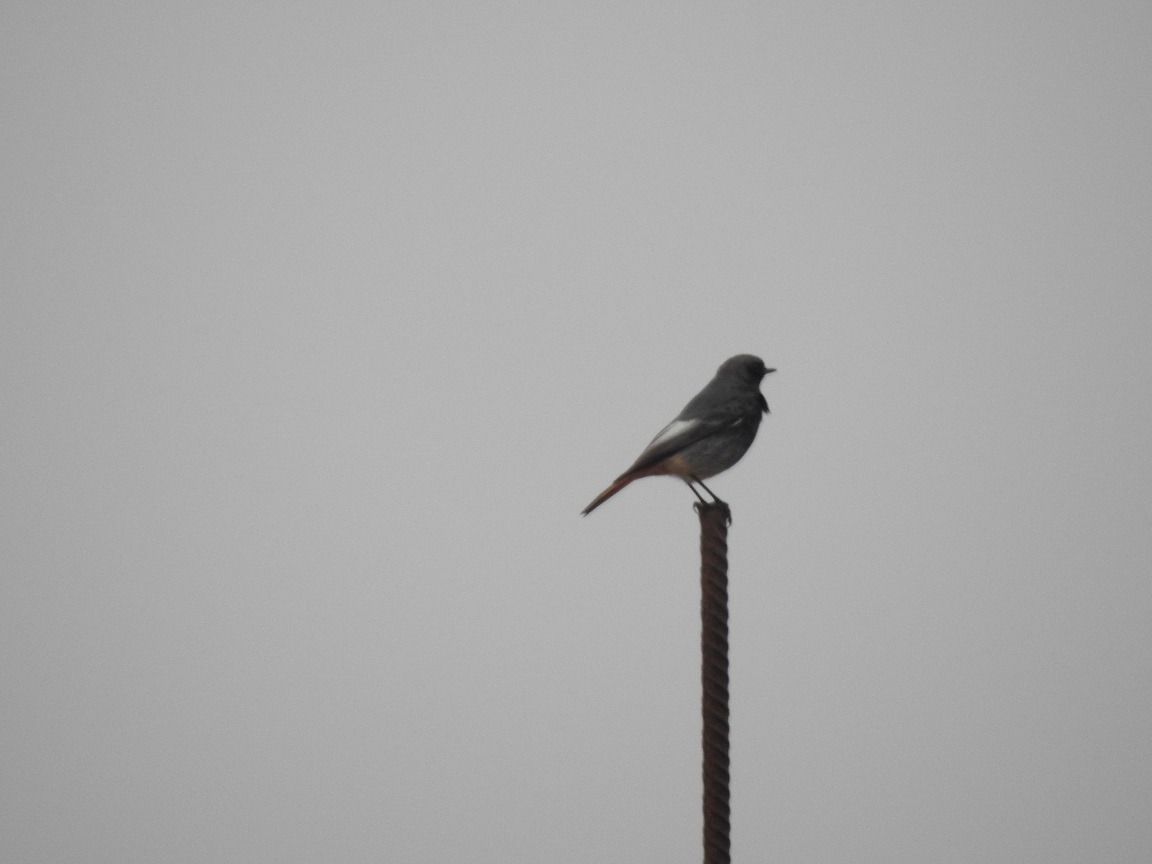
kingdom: Animalia
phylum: Chordata
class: Aves
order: Passeriformes
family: Muscicapidae
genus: Phoenicurus
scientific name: Phoenicurus ochruros
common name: Black redstart
